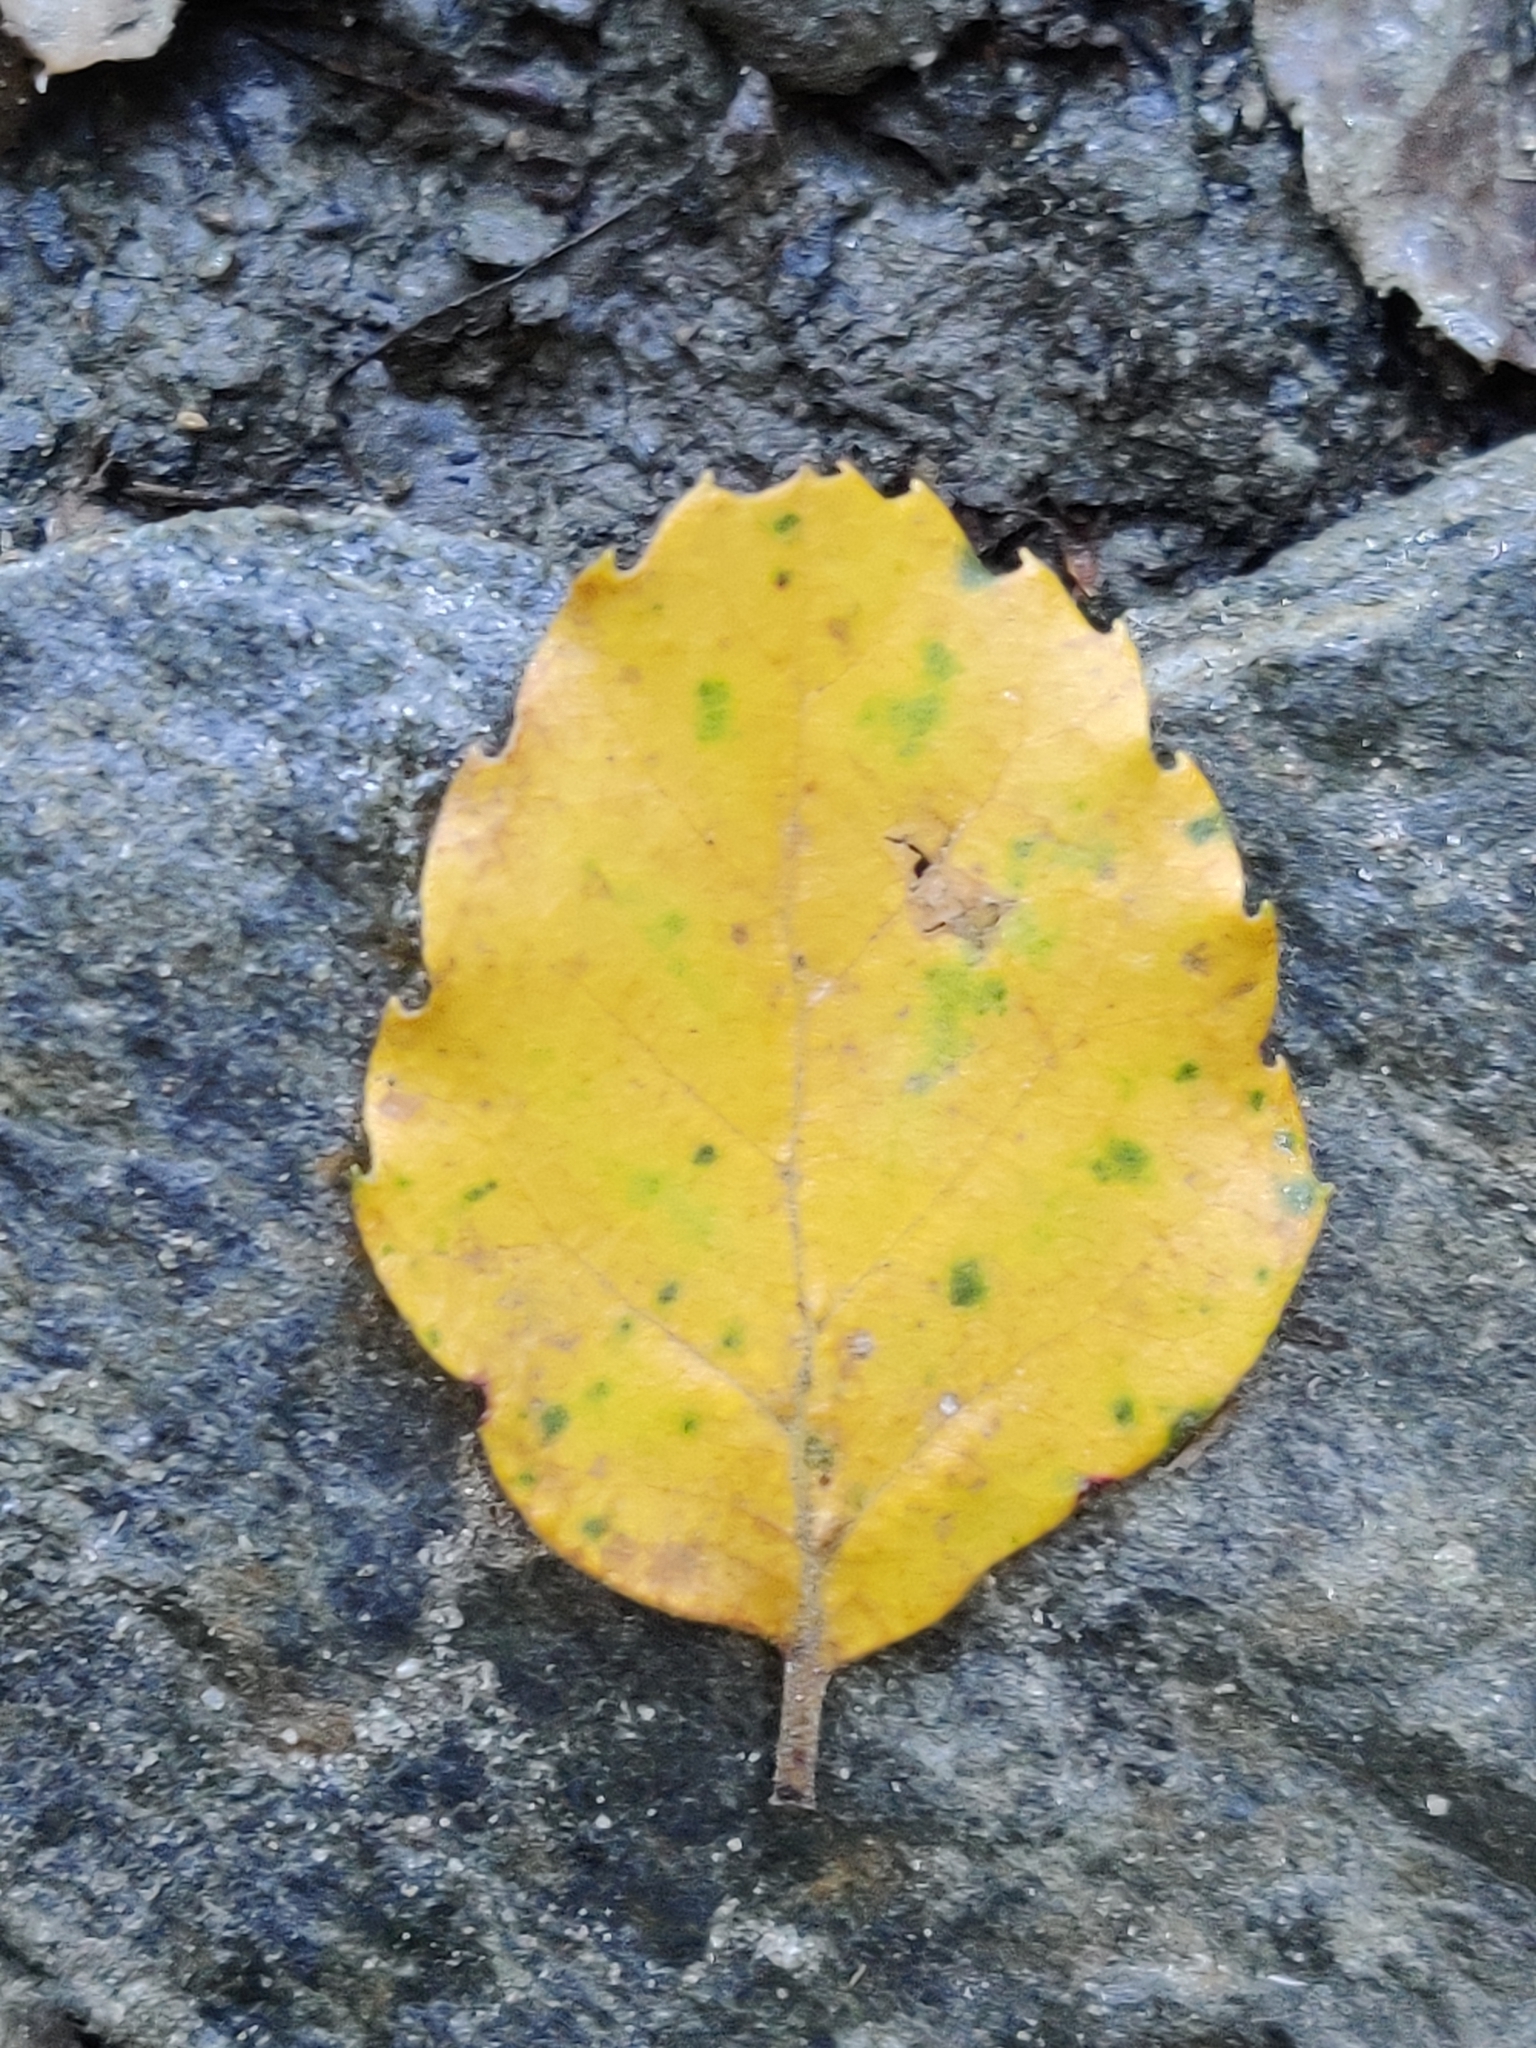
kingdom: Plantae
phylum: Tracheophyta
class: Magnoliopsida
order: Fagales
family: Nothofagaceae
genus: Nothofagus
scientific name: Nothofagus fusca
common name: Red beech
